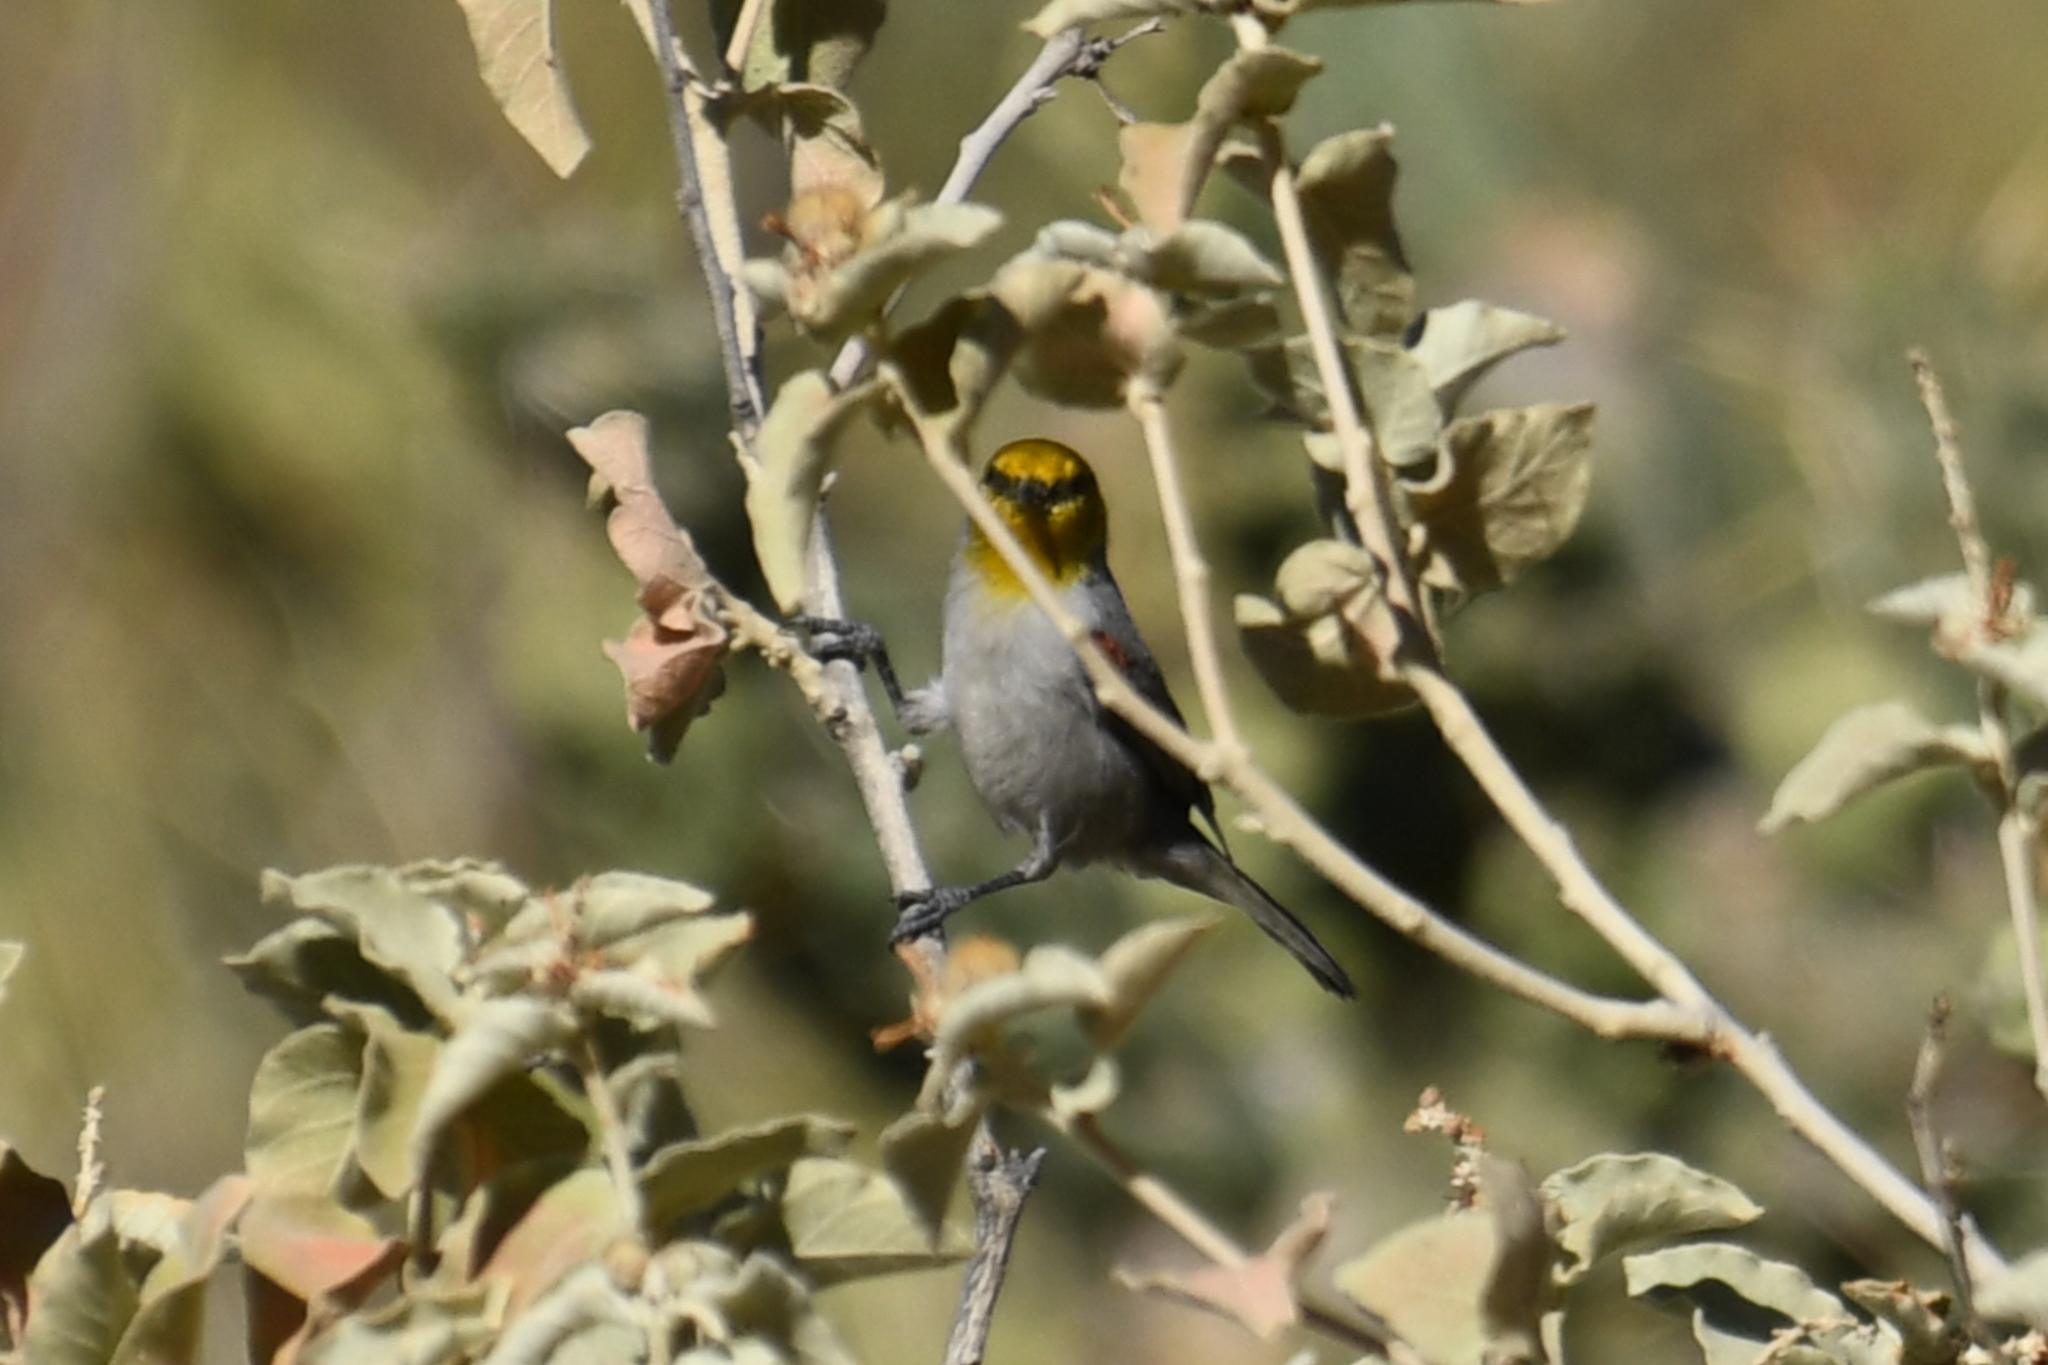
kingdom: Animalia
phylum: Chordata
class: Aves
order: Passeriformes
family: Remizidae
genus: Auriparus
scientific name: Auriparus flaviceps
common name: Verdin
